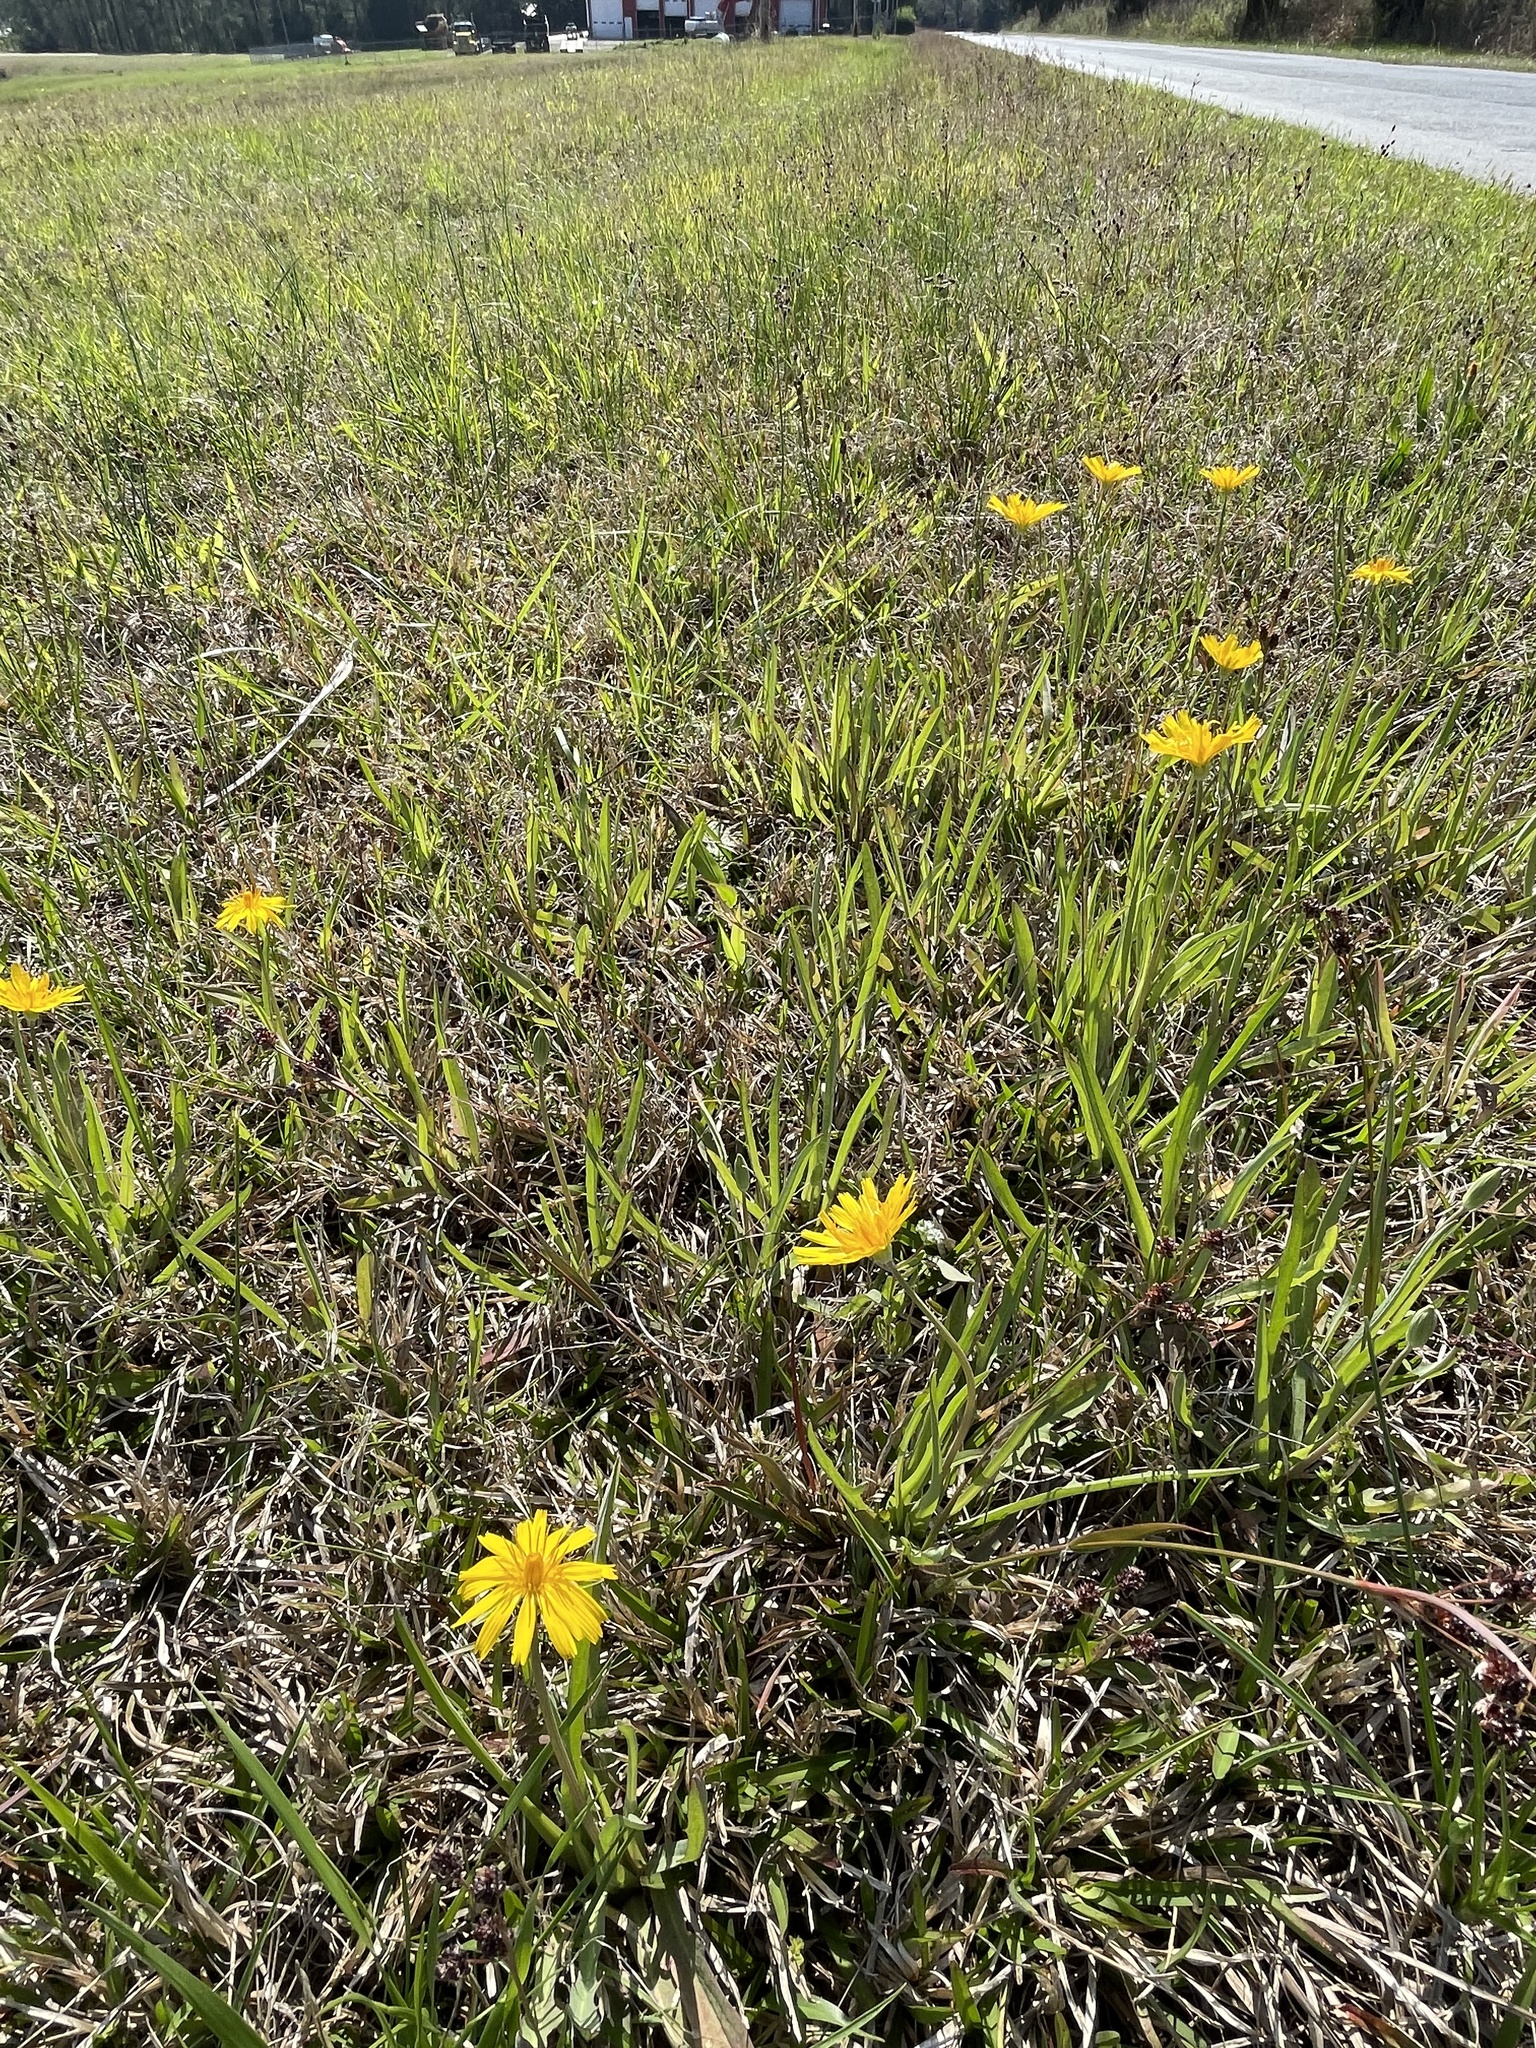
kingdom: Plantae
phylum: Tracheophyta
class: Magnoliopsida
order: Asterales
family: Asteraceae
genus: Krigia
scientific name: Krigia dandelion
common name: Colonial dwarf-dandelion
